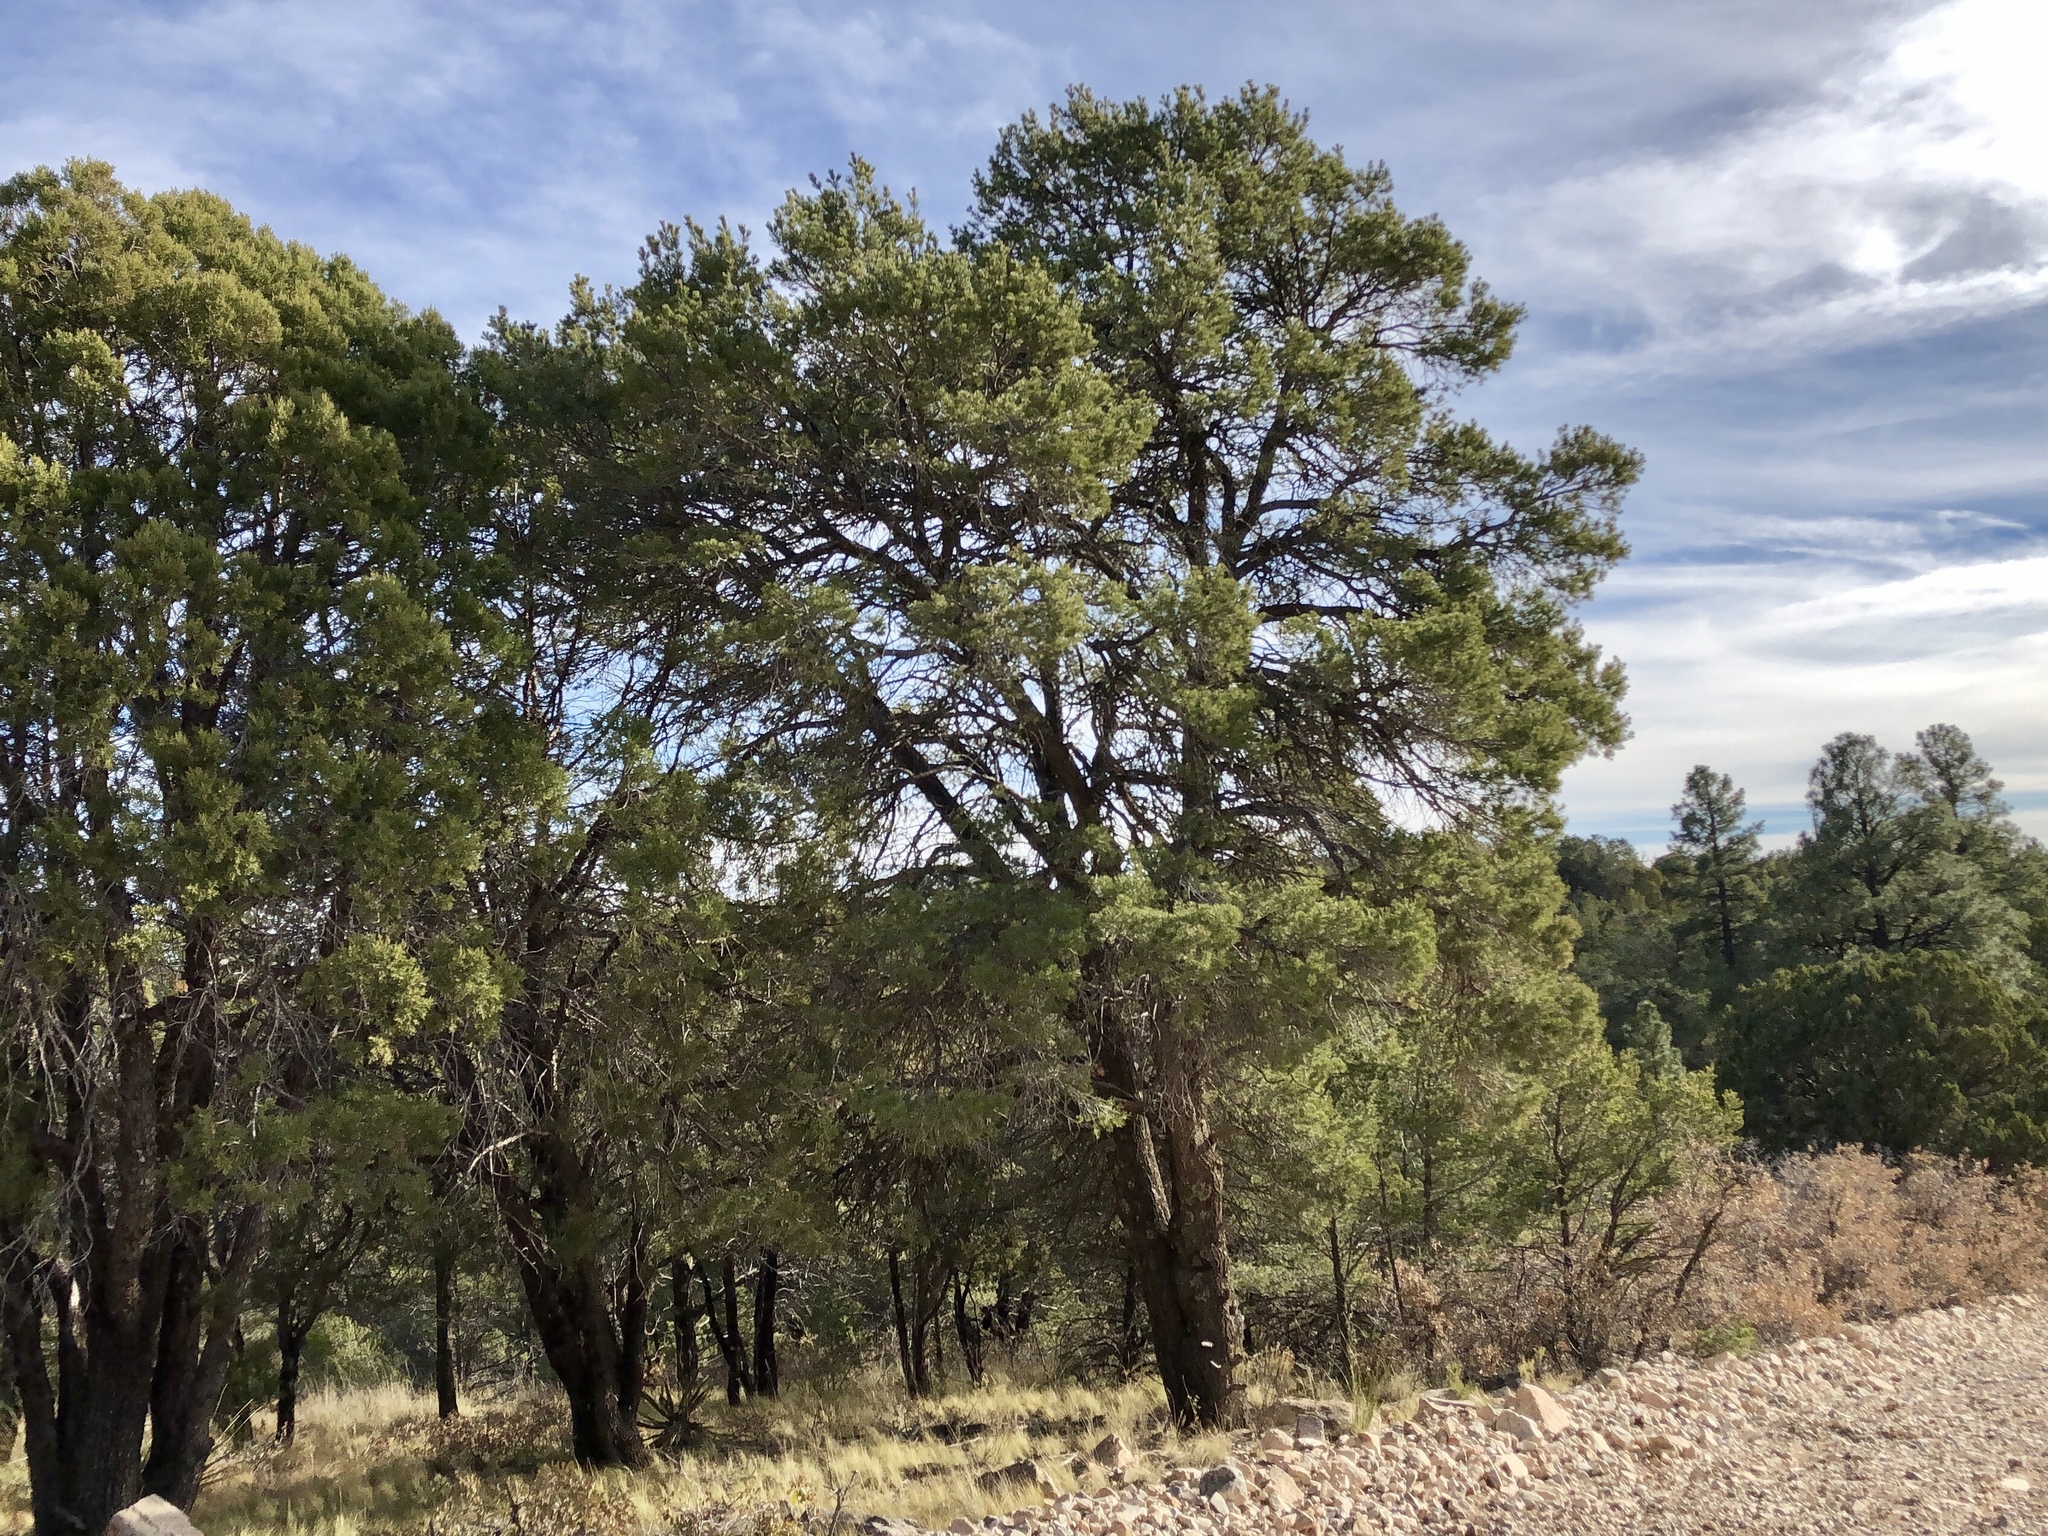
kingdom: Plantae
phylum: Tracheophyta
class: Pinopsida
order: Pinales
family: Pinaceae
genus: Pinus
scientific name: Pinus edulis
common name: Colorado pinyon
